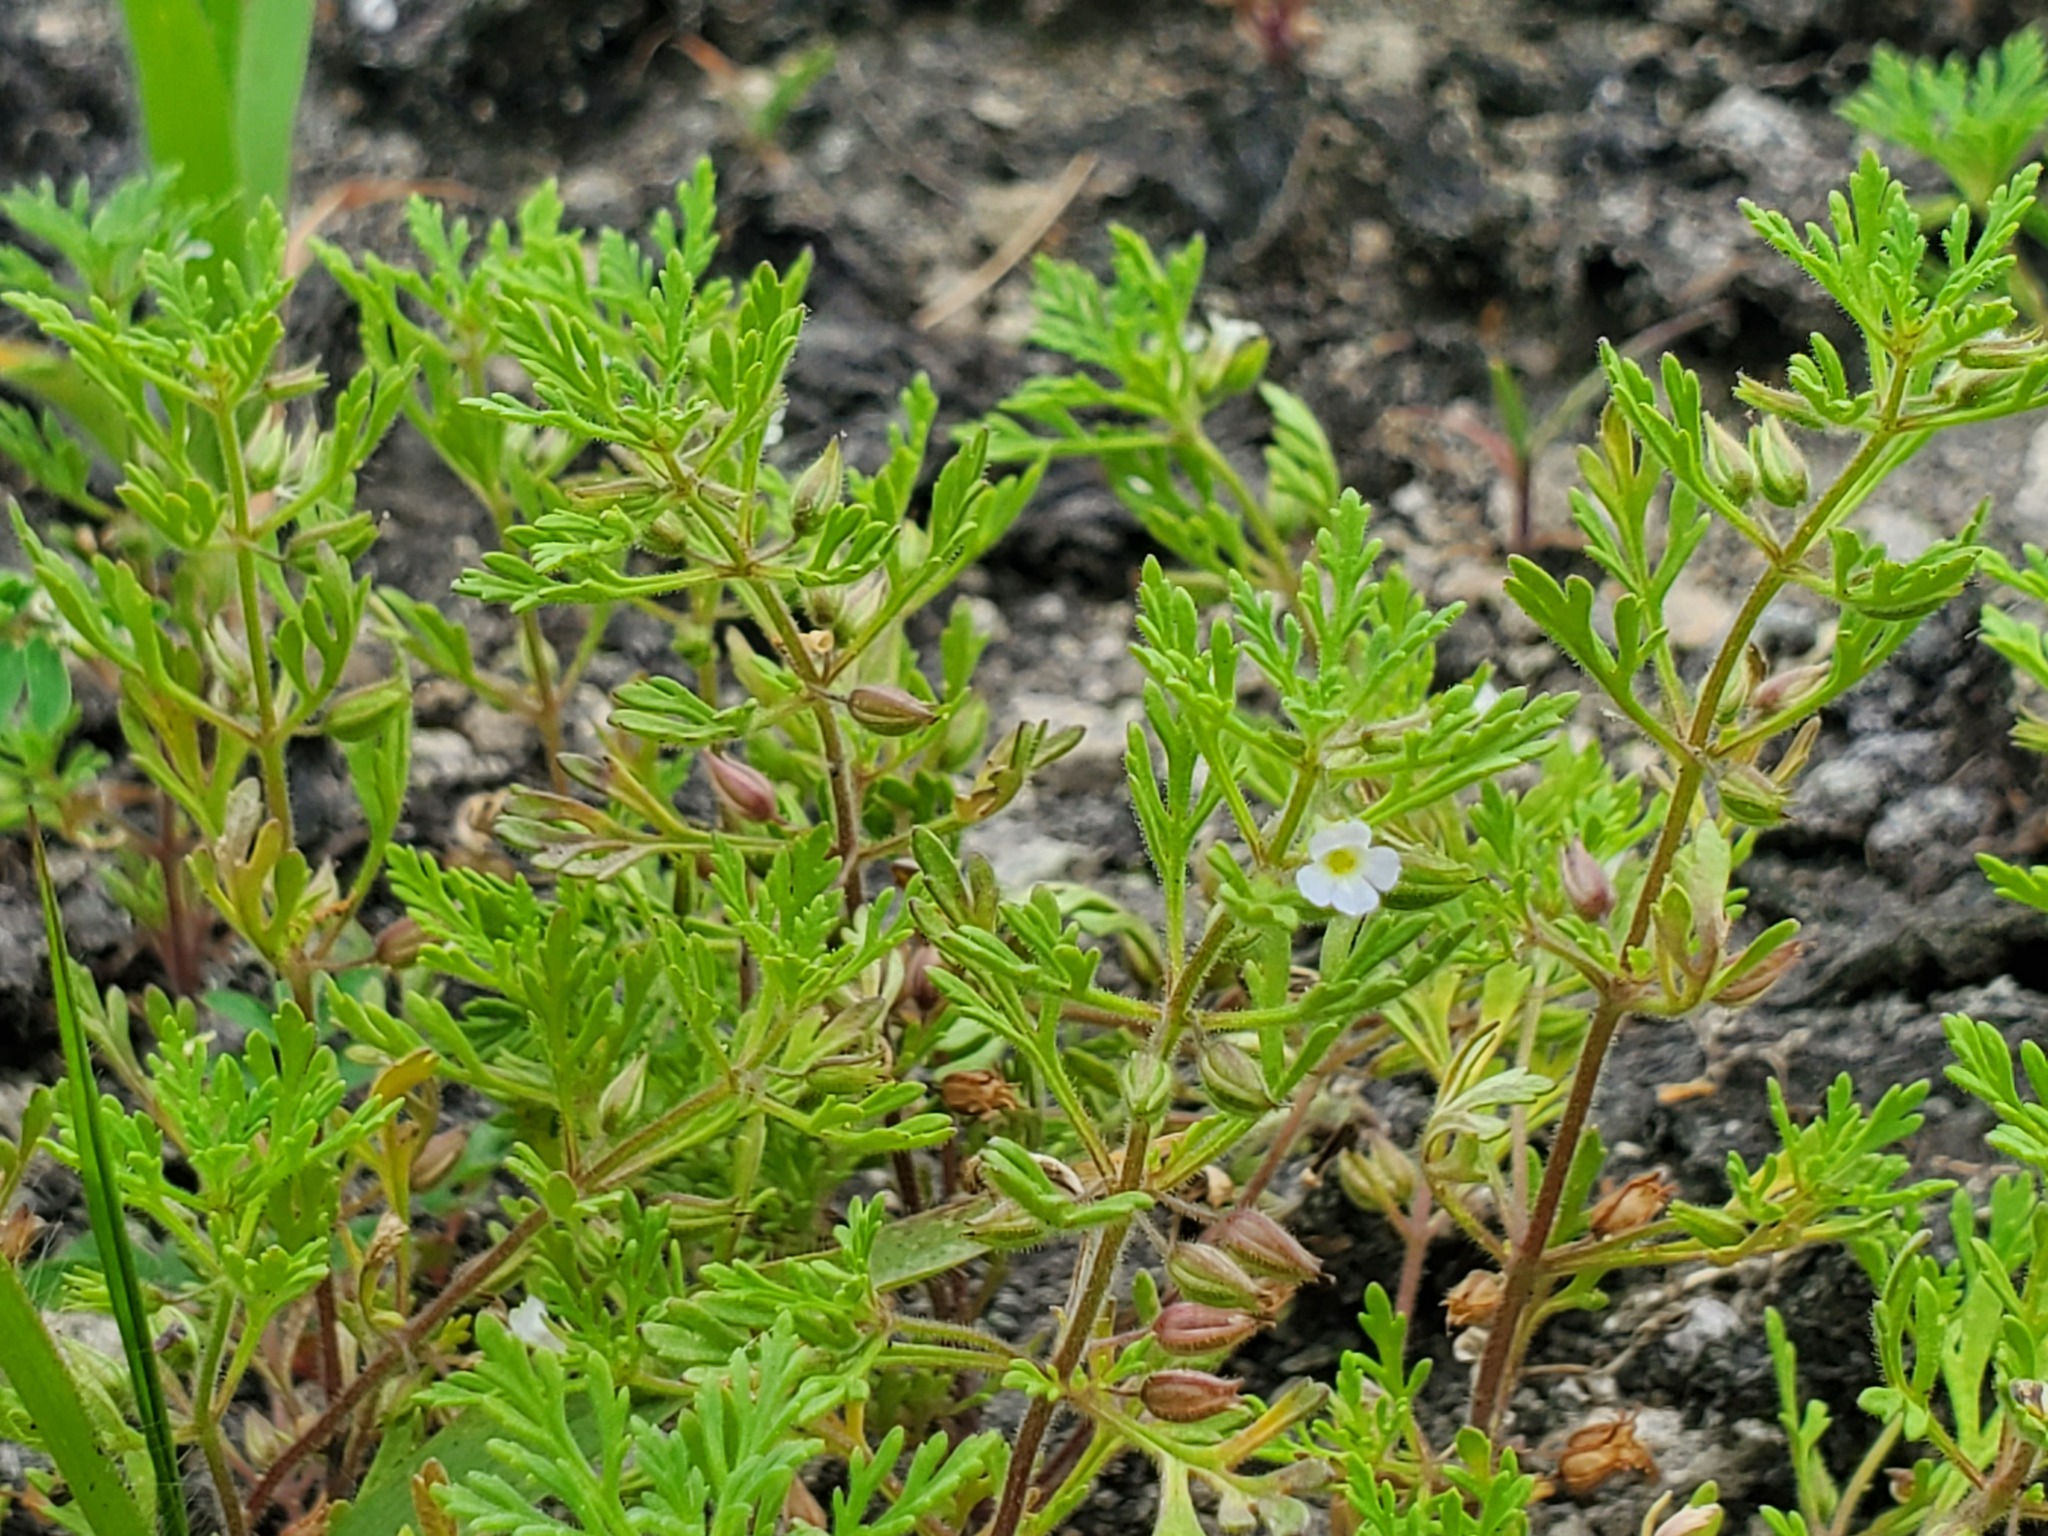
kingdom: Plantae
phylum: Tracheophyta
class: Magnoliopsida
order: Lamiales
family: Plantaginaceae
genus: Leucospora
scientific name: Leucospora multifida
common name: Narrow-leaf paleseed
